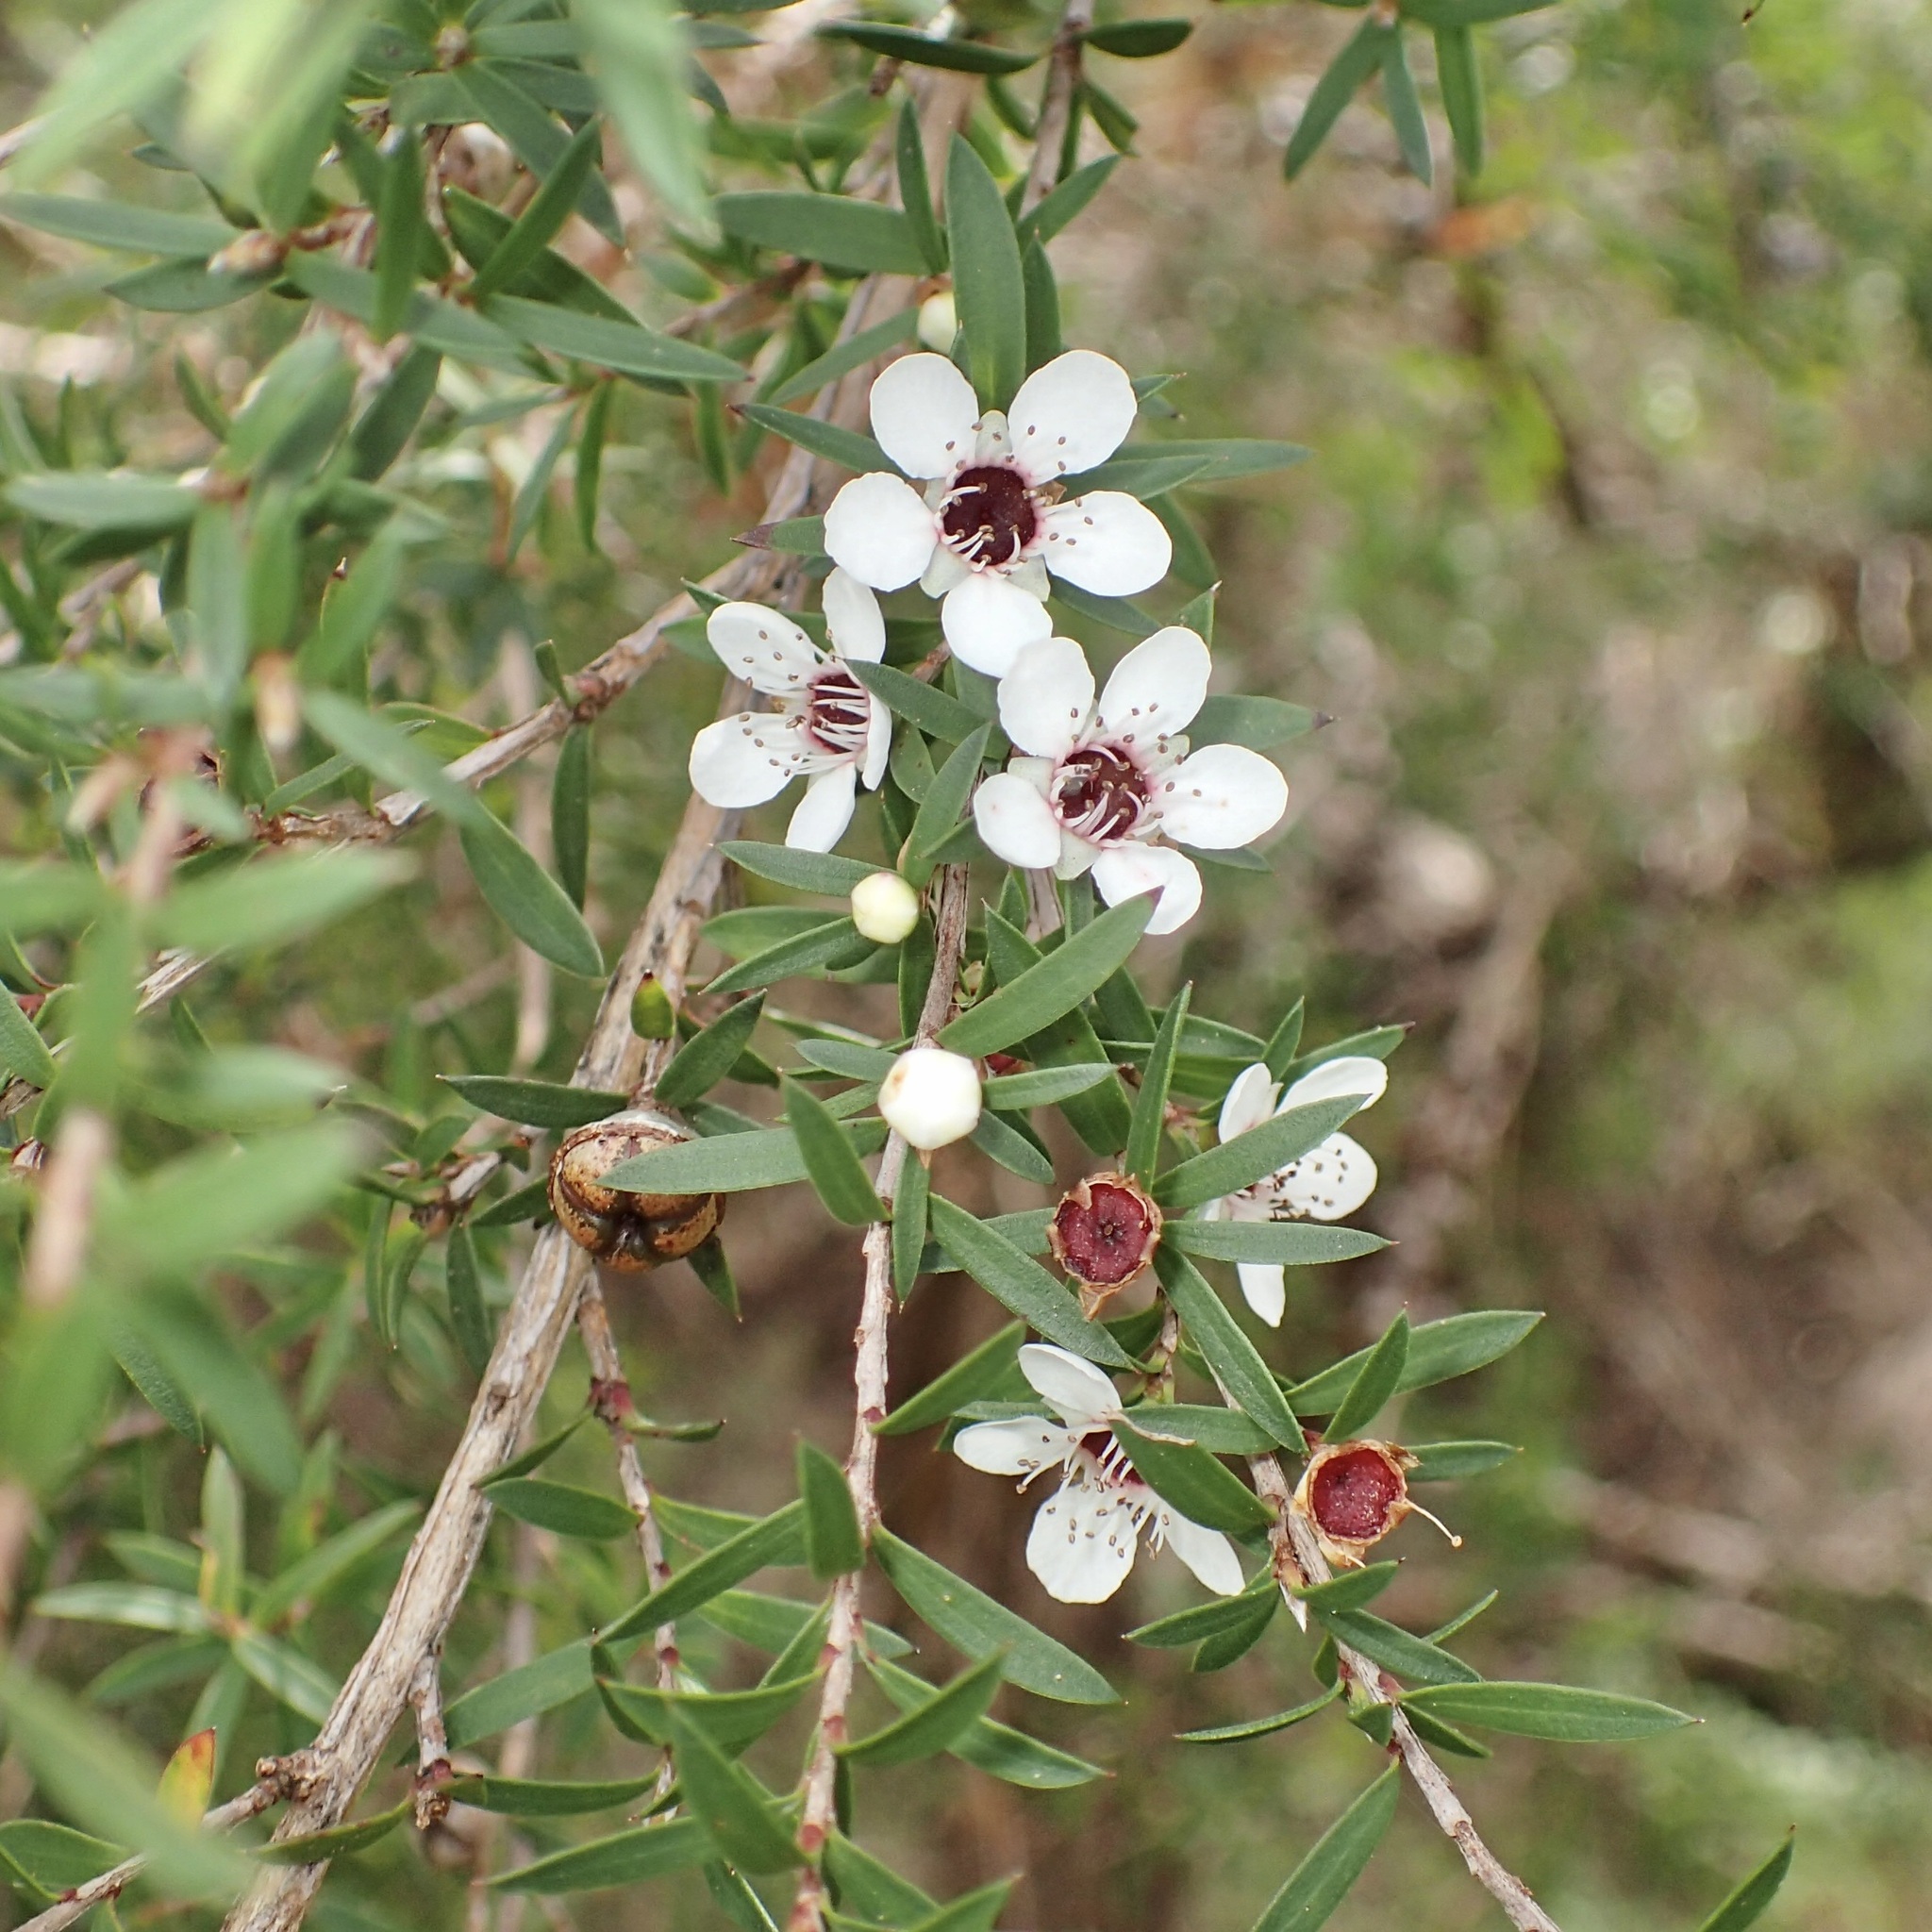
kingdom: Plantae
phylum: Tracheophyta
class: Magnoliopsida
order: Myrtales
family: Myrtaceae
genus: Leptospermum
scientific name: Leptospermum scoparium
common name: Broom tea-tree
